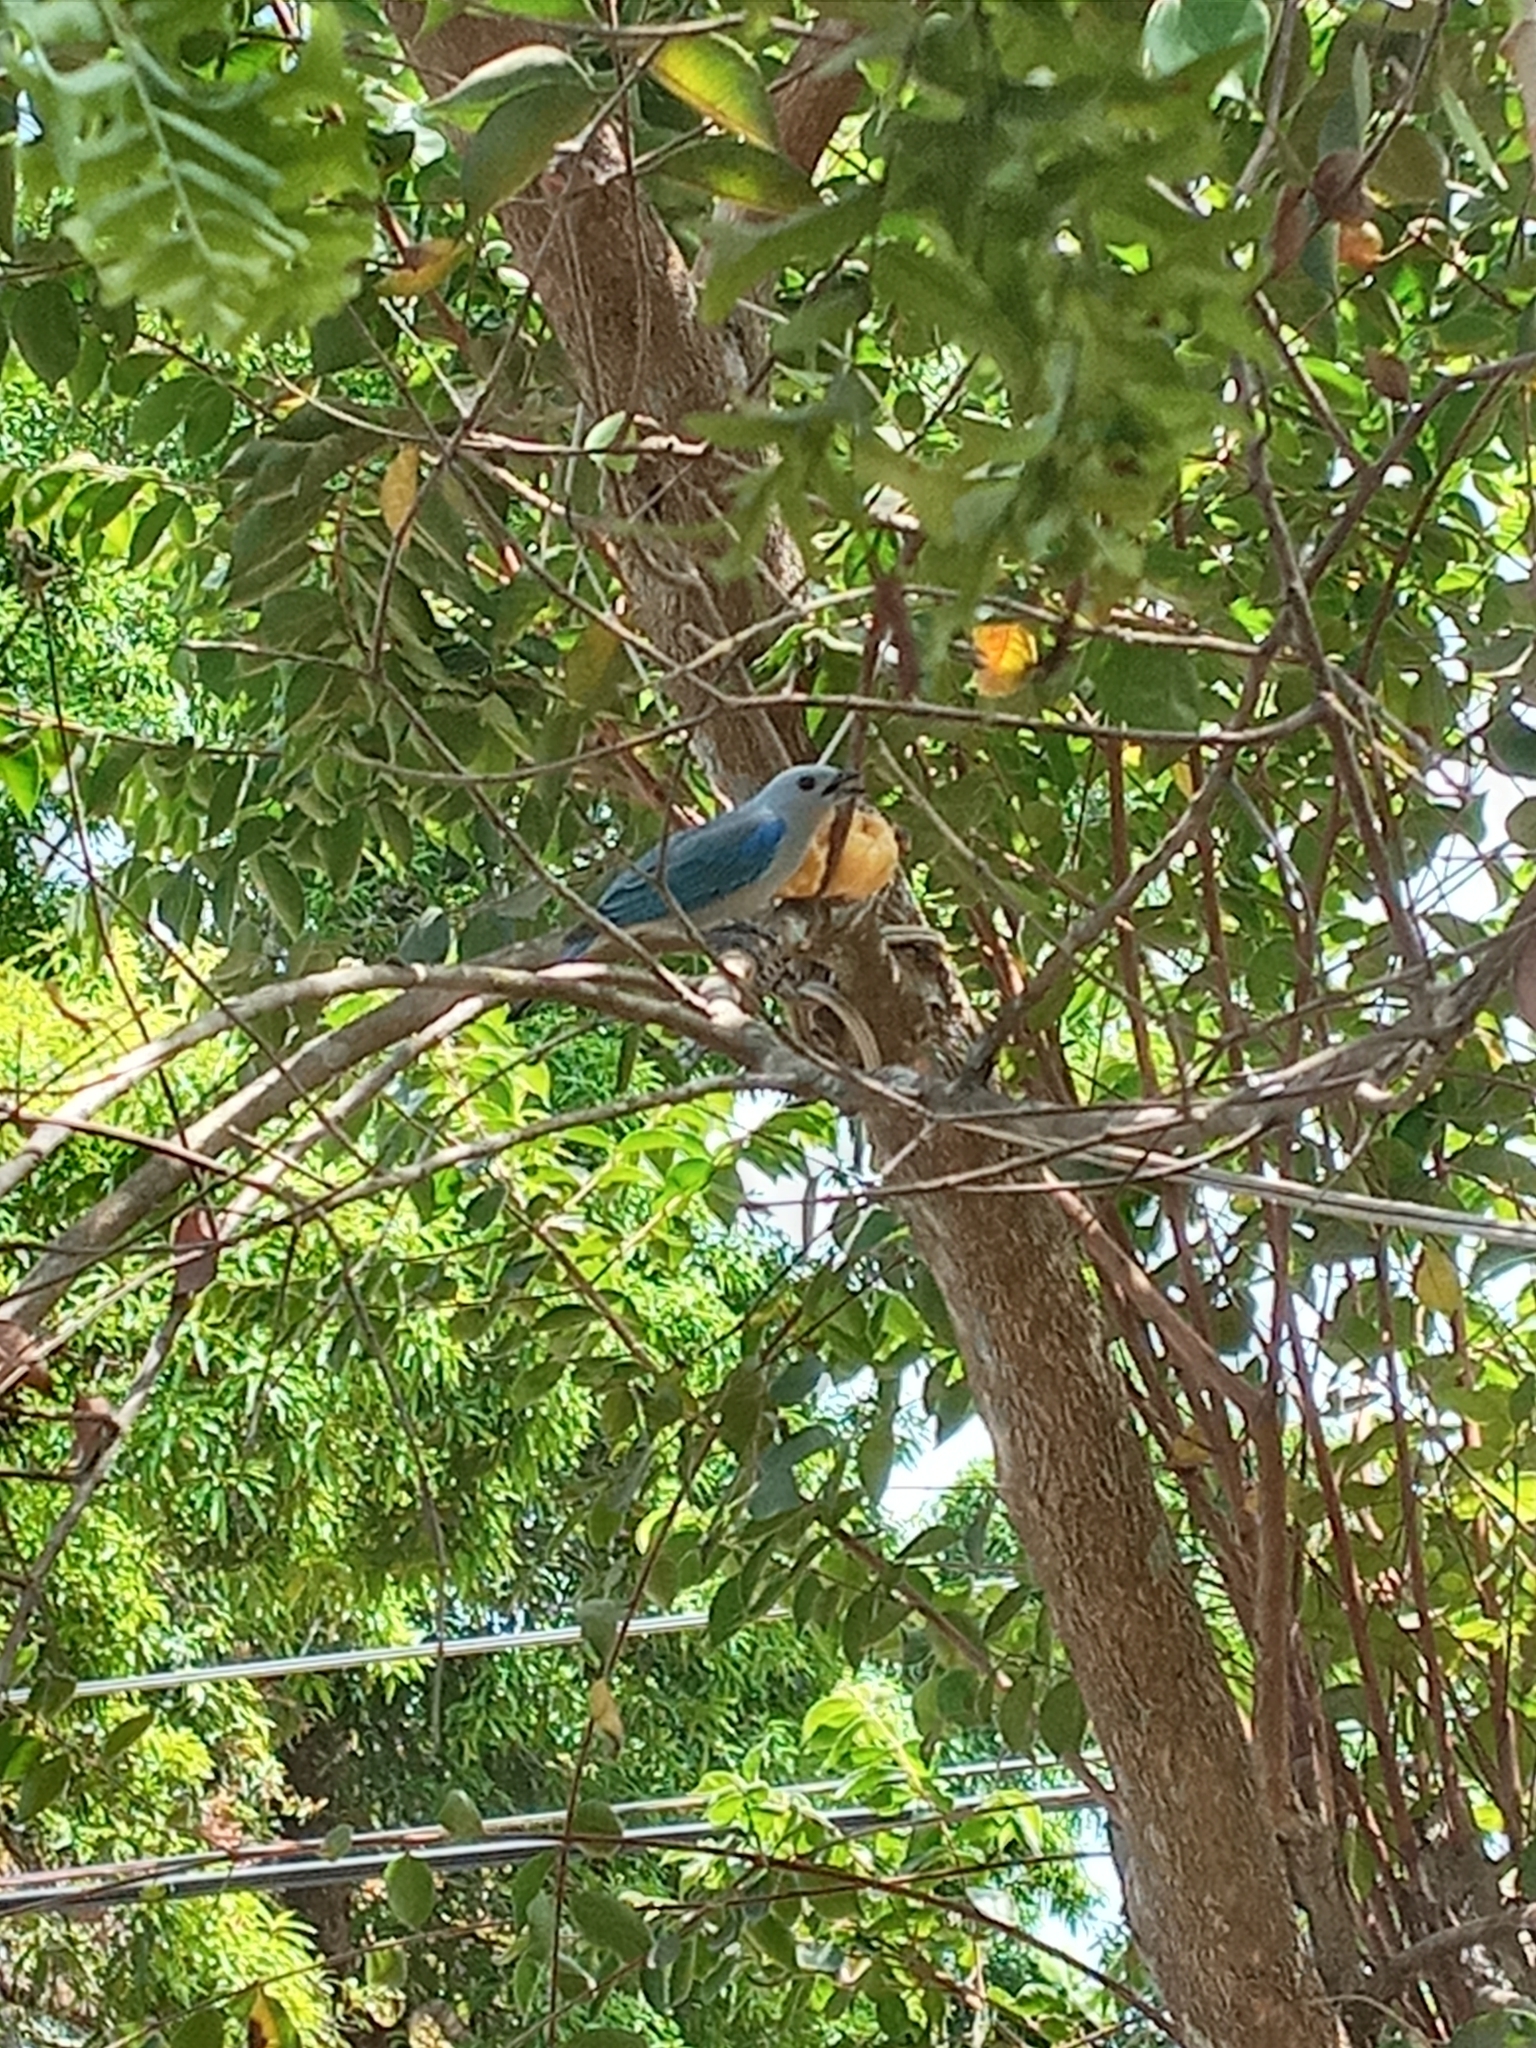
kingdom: Animalia
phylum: Chordata
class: Aves
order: Passeriformes
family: Thraupidae
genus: Thraupis
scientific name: Thraupis episcopus
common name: Blue-grey tanager
